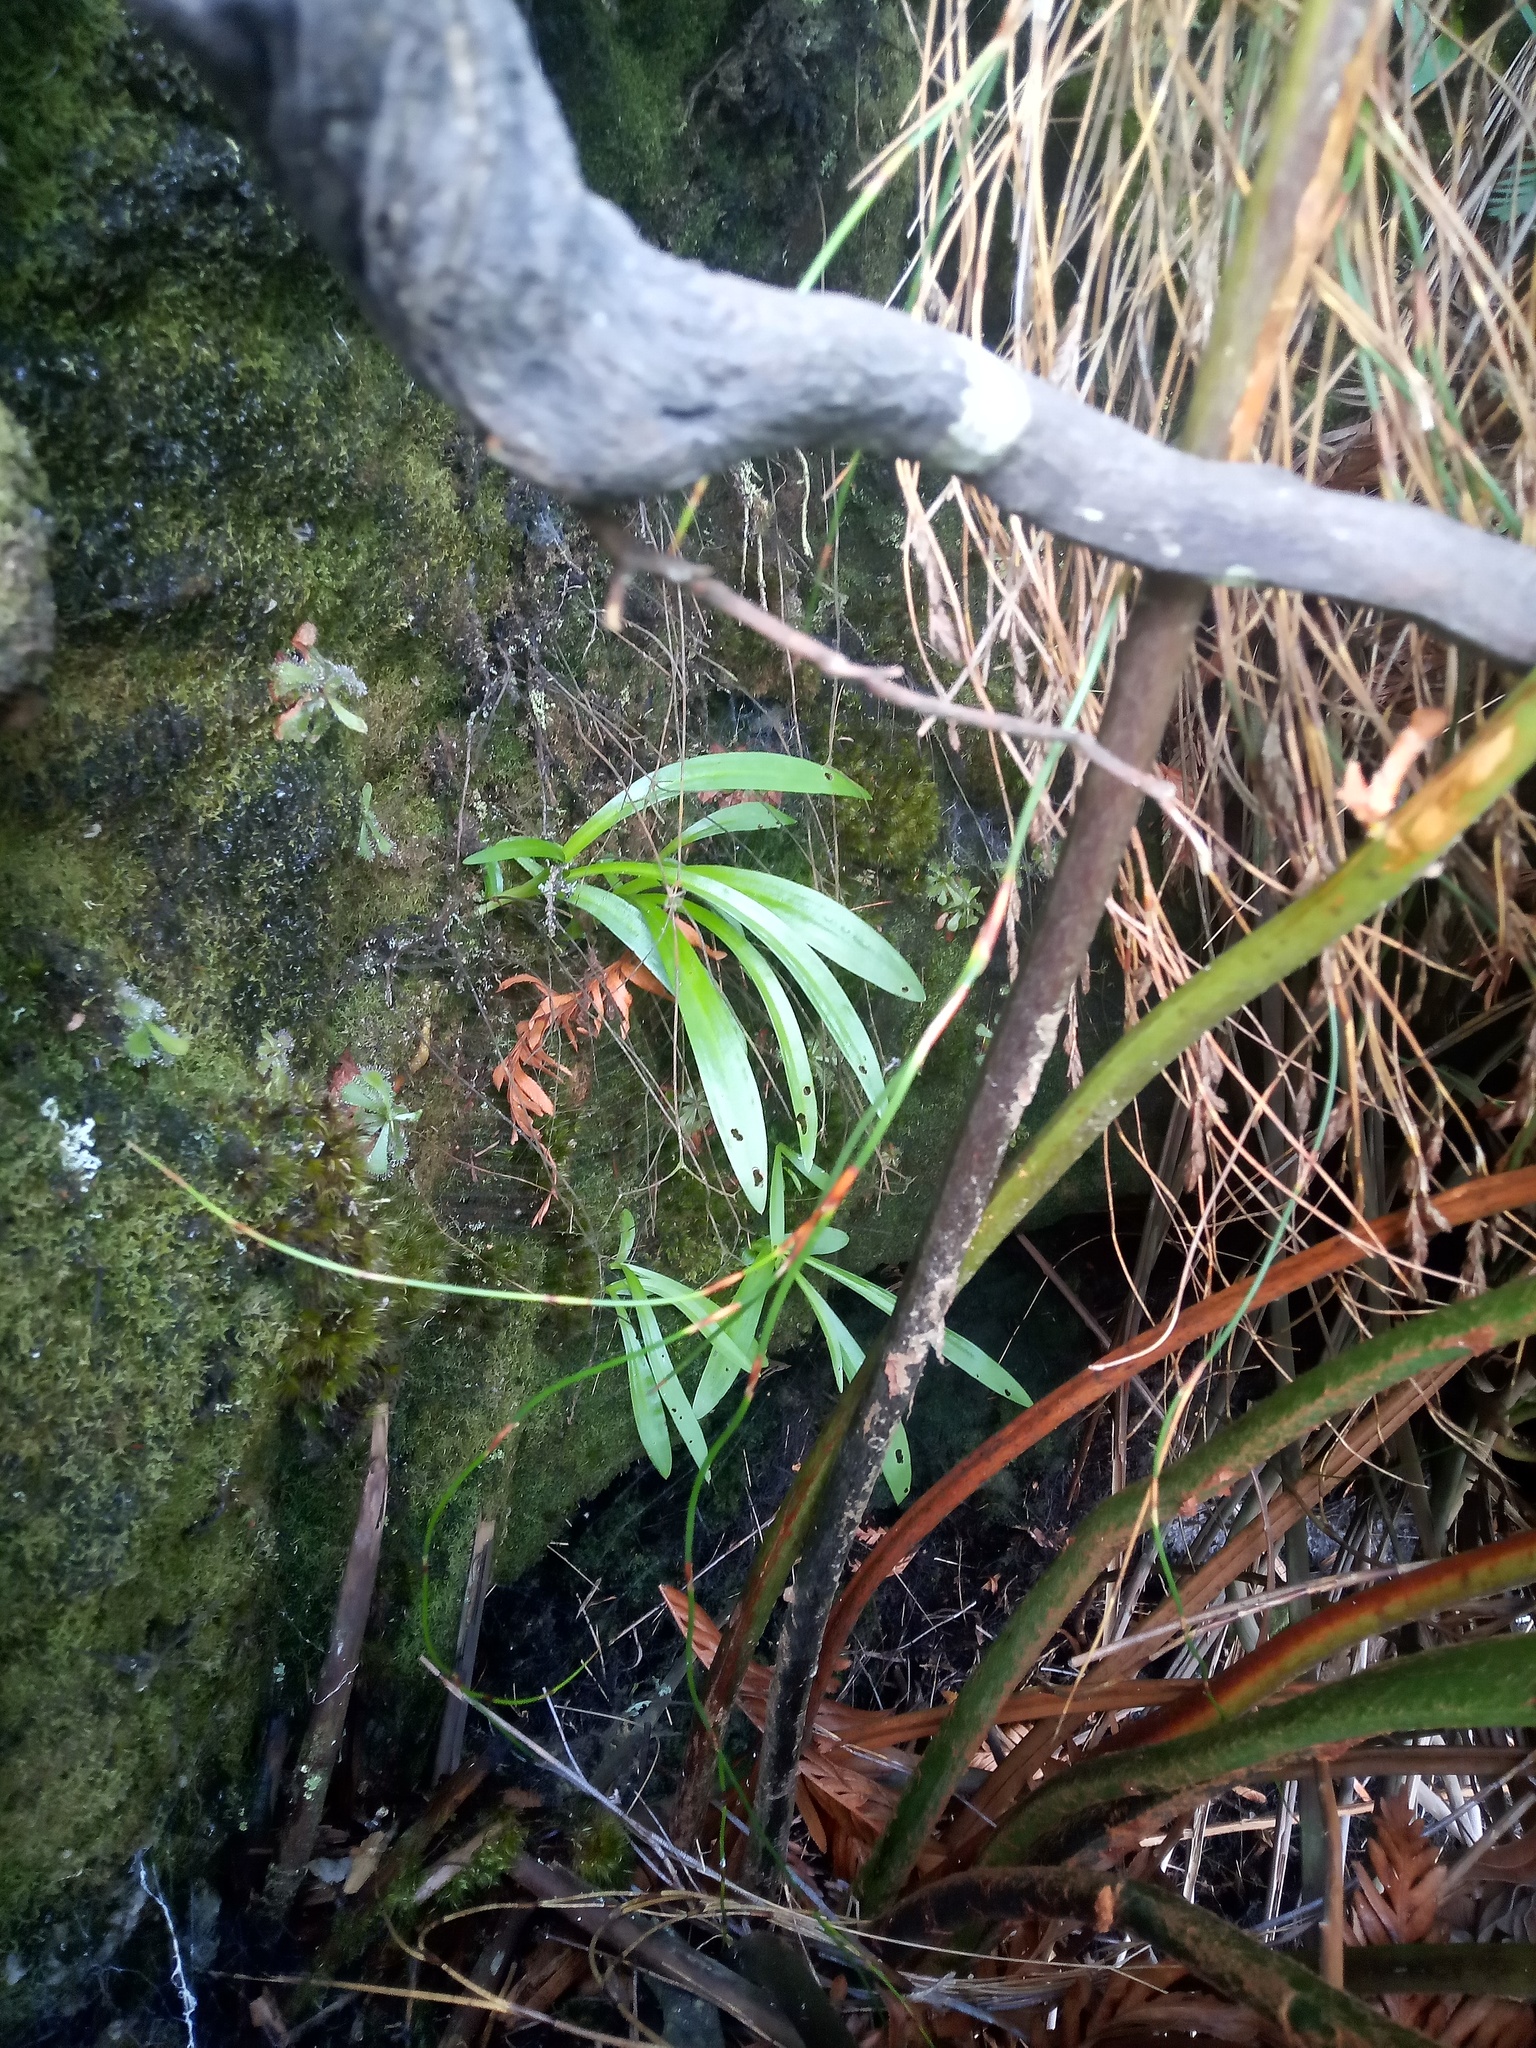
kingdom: Plantae
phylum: Tracheophyta
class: Liliopsida
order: Asparagales
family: Orchidaceae
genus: Disa
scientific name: Disa uniflora
